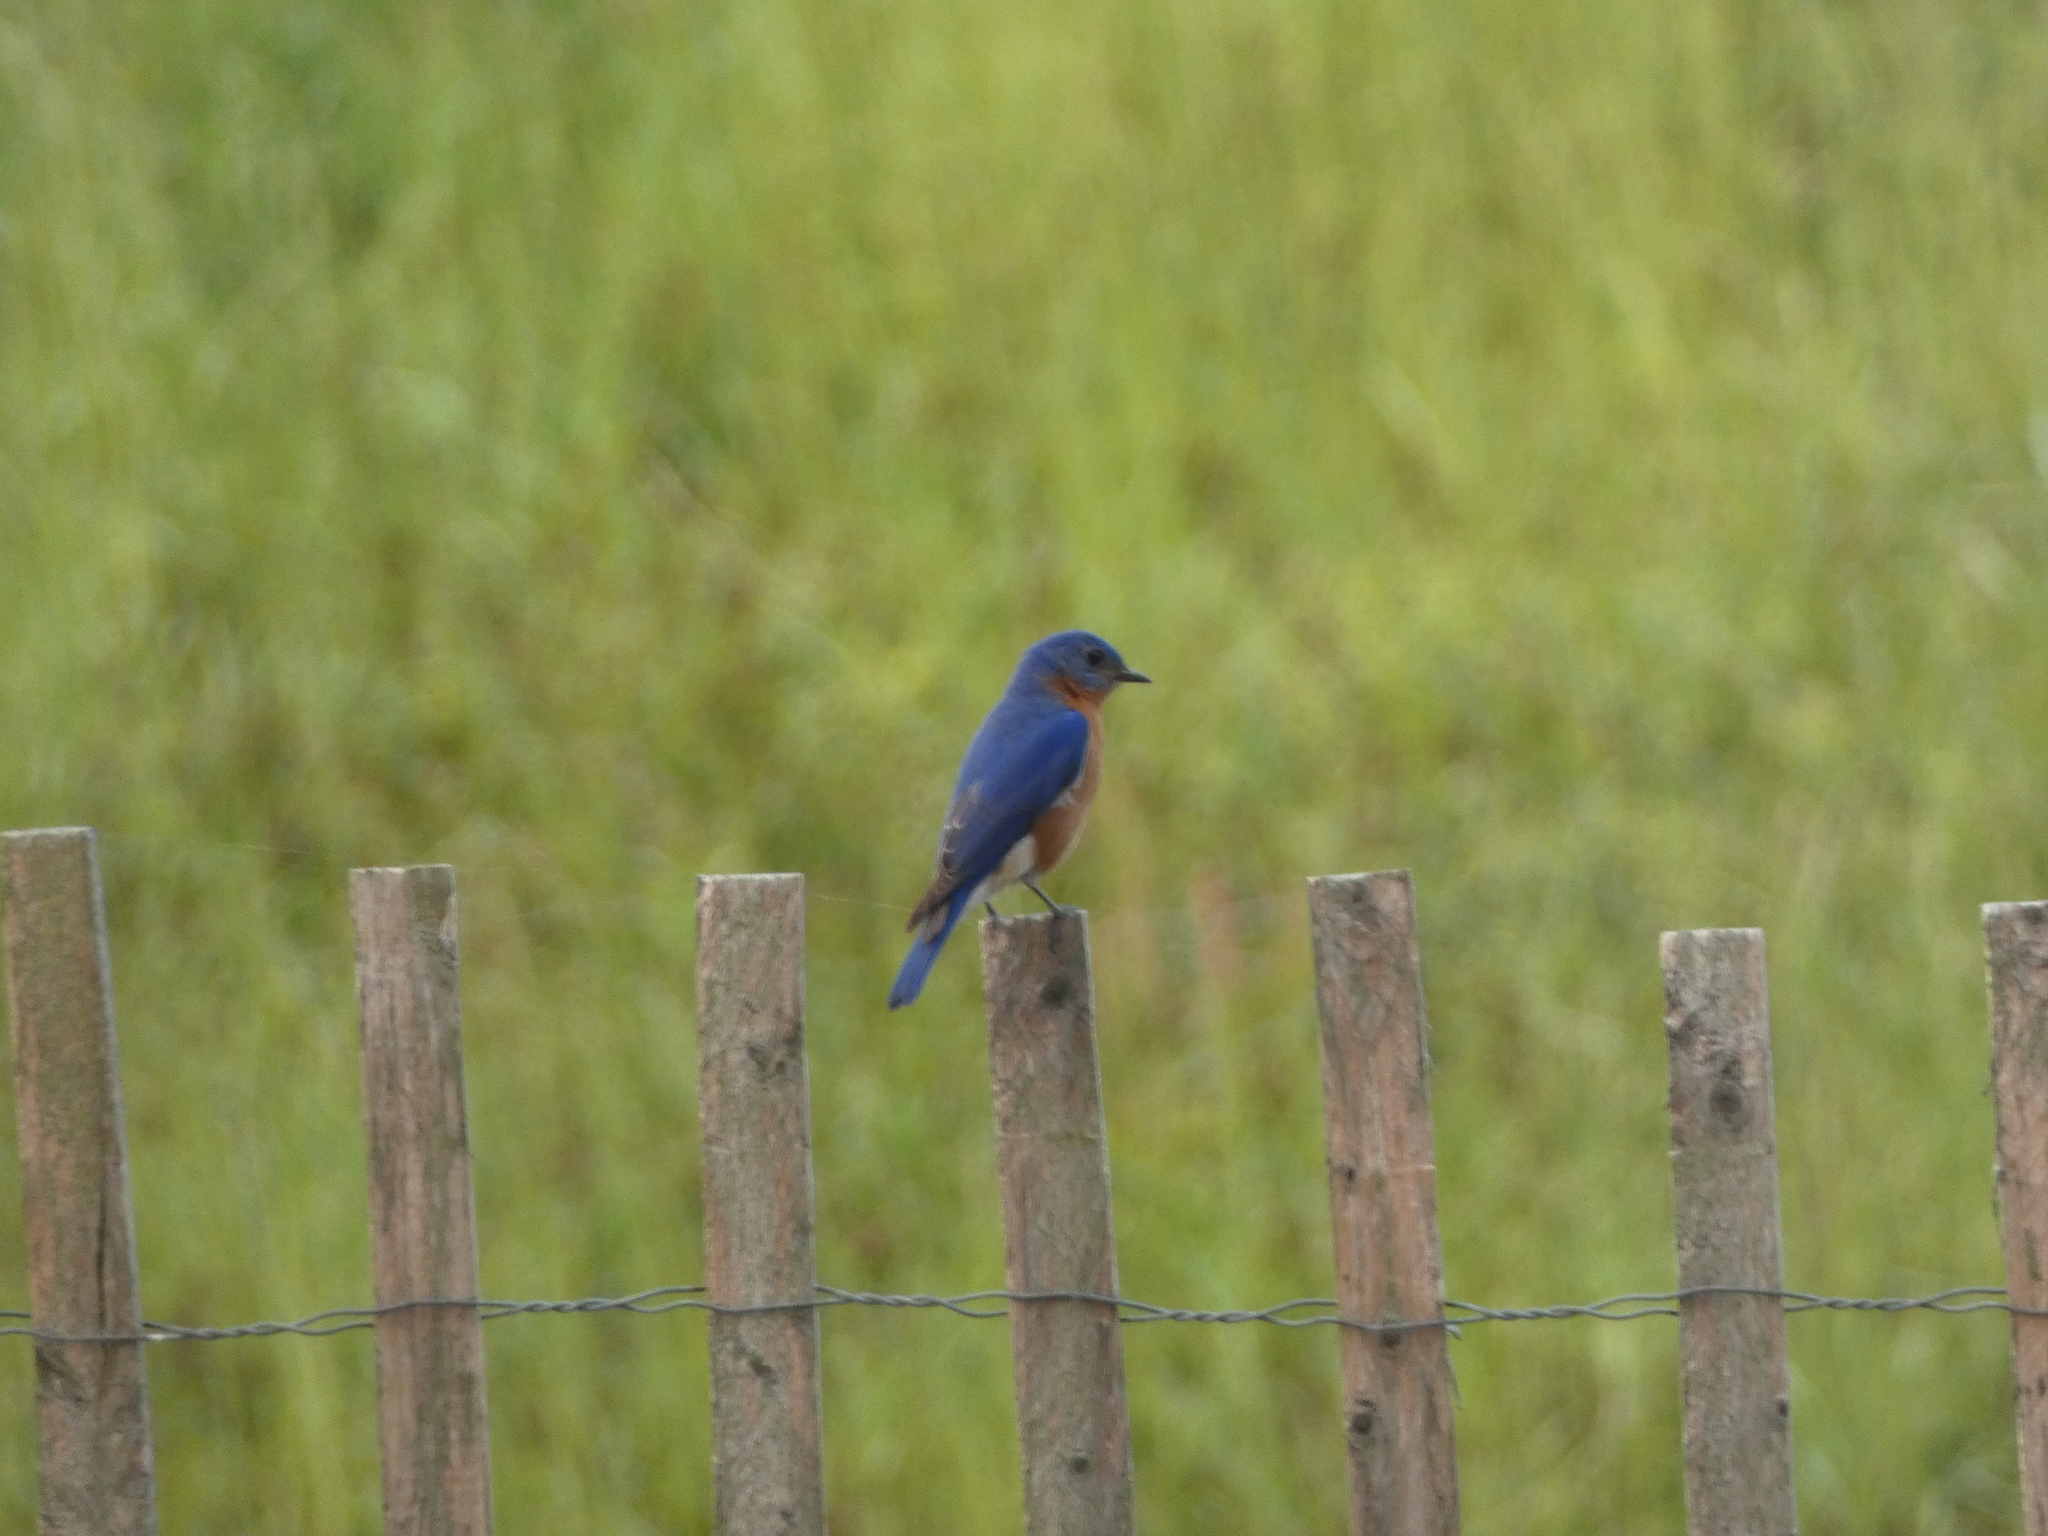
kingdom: Animalia
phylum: Chordata
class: Aves
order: Passeriformes
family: Turdidae
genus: Sialia
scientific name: Sialia sialis
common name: Eastern bluebird
